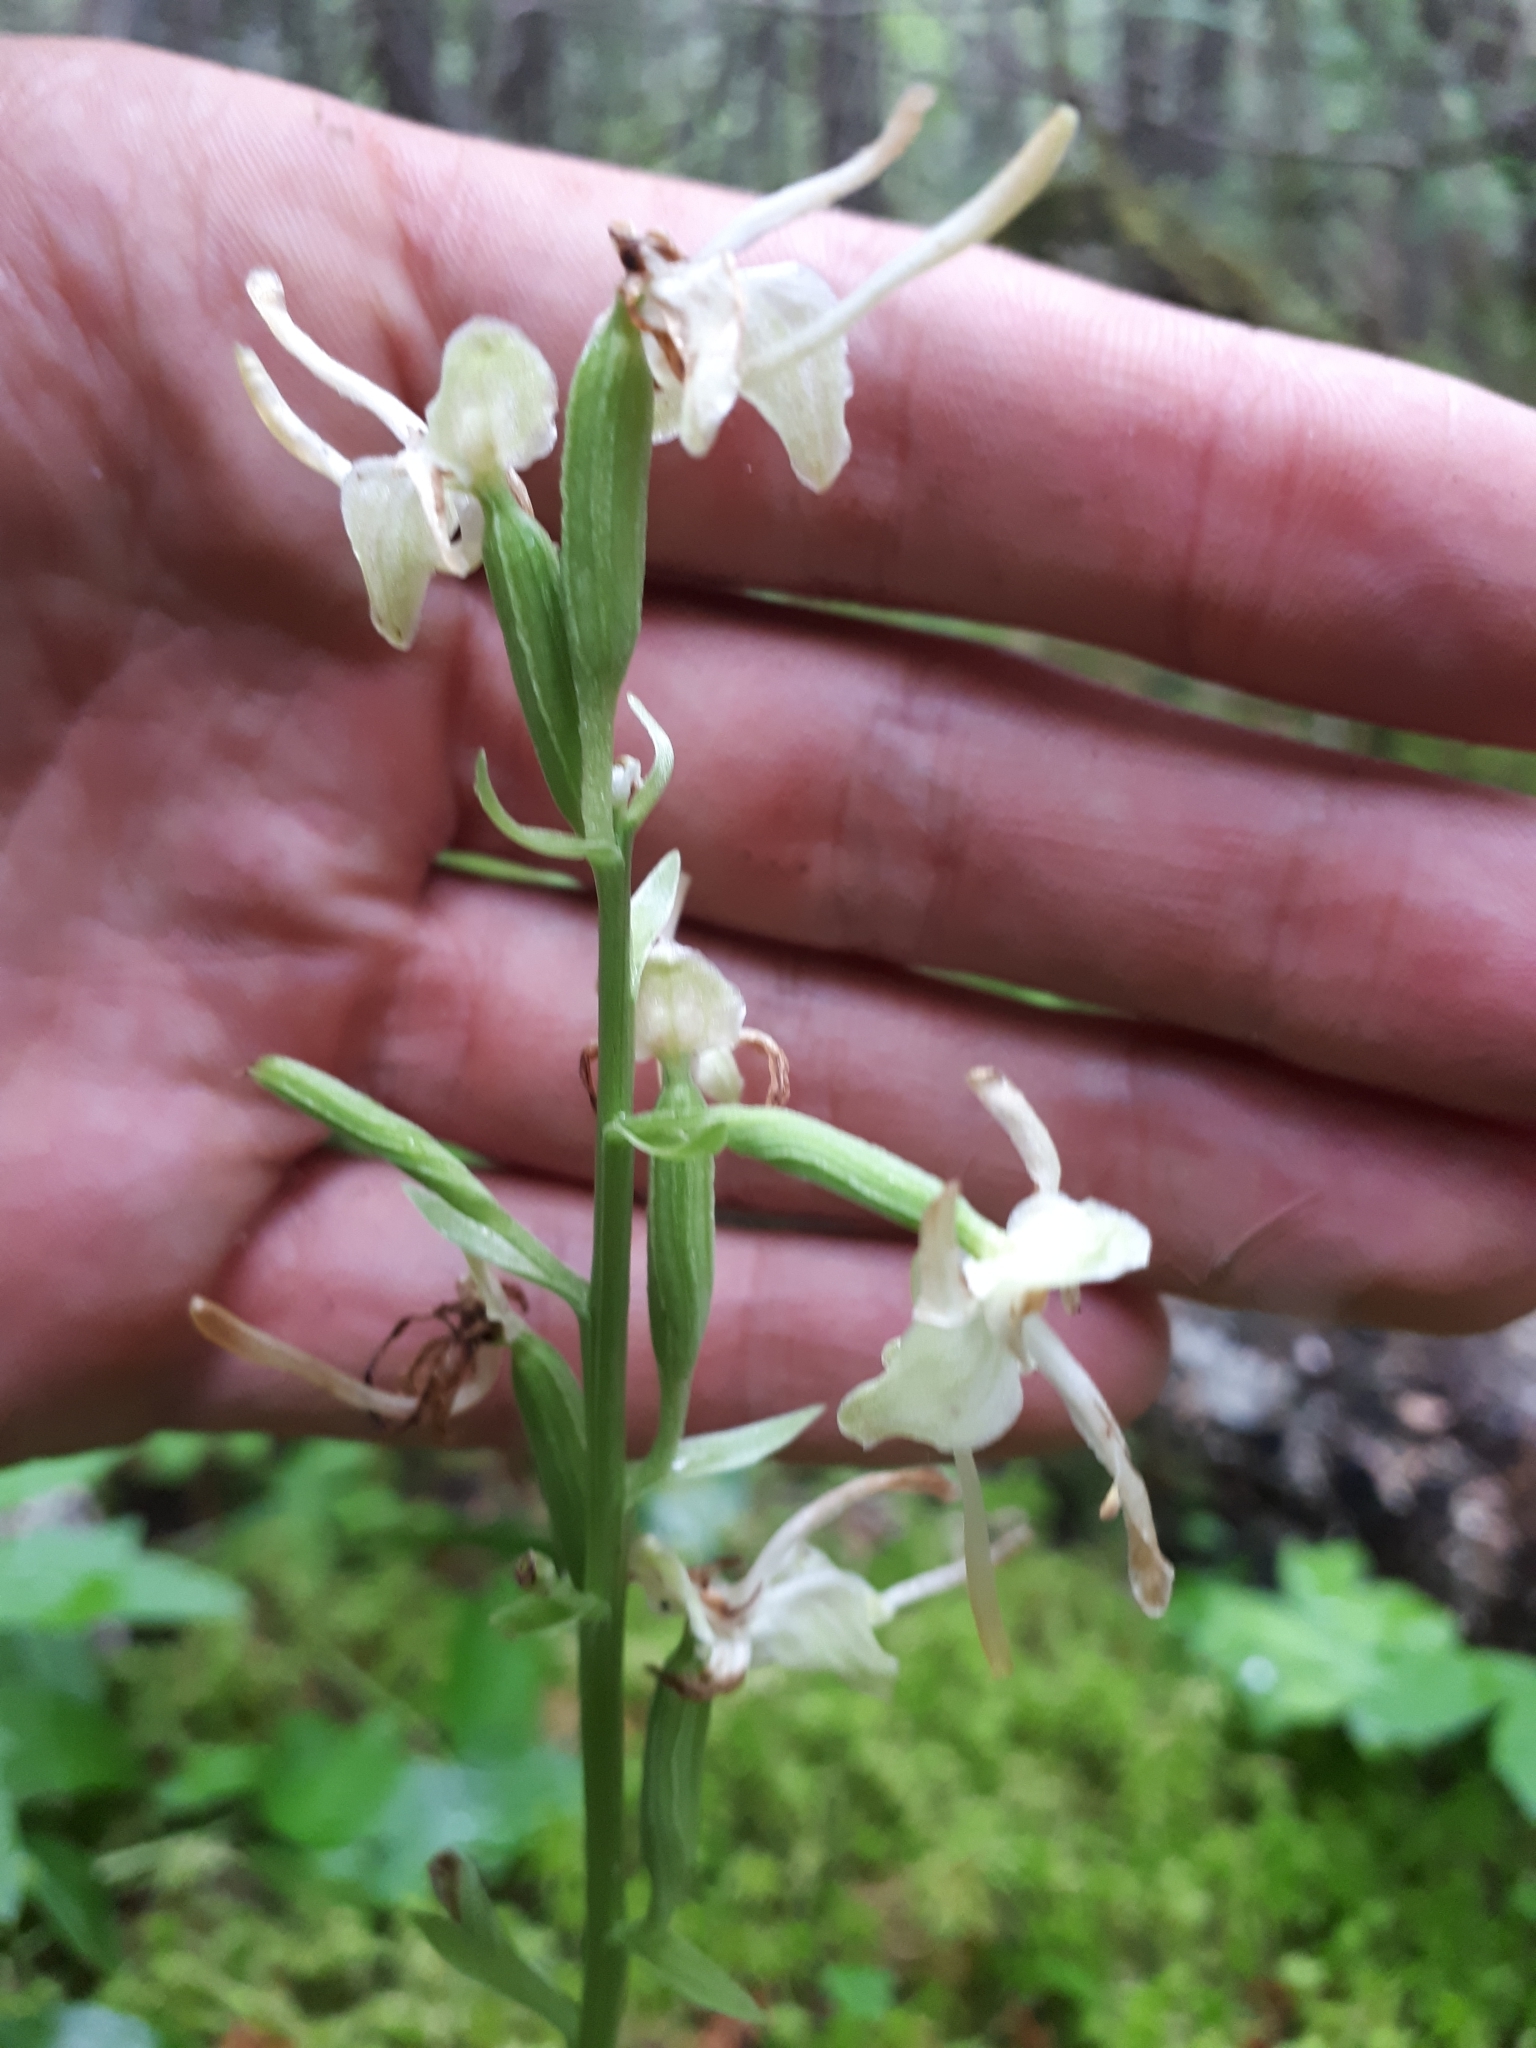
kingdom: Plantae
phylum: Tracheophyta
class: Liliopsida
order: Asparagales
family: Orchidaceae
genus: Platanthera
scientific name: Platanthera orbiculata
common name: Large round-leaved orchid
